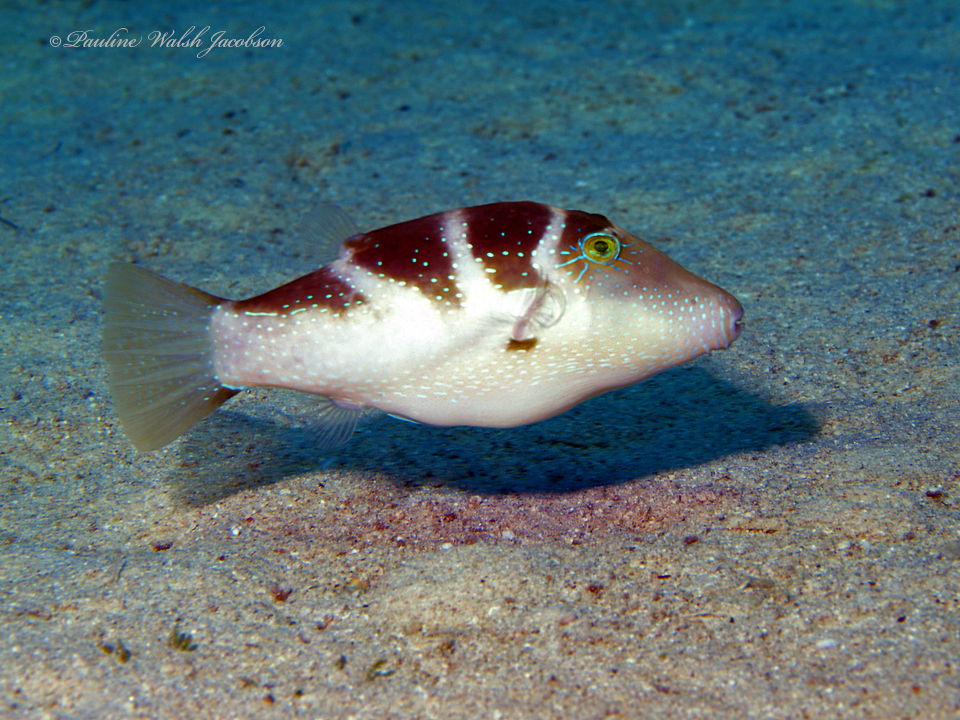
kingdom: Animalia
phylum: Chordata
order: Tetraodontiformes
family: Tetraodontidae
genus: Canthigaster
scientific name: Canthigaster cyanospilota
